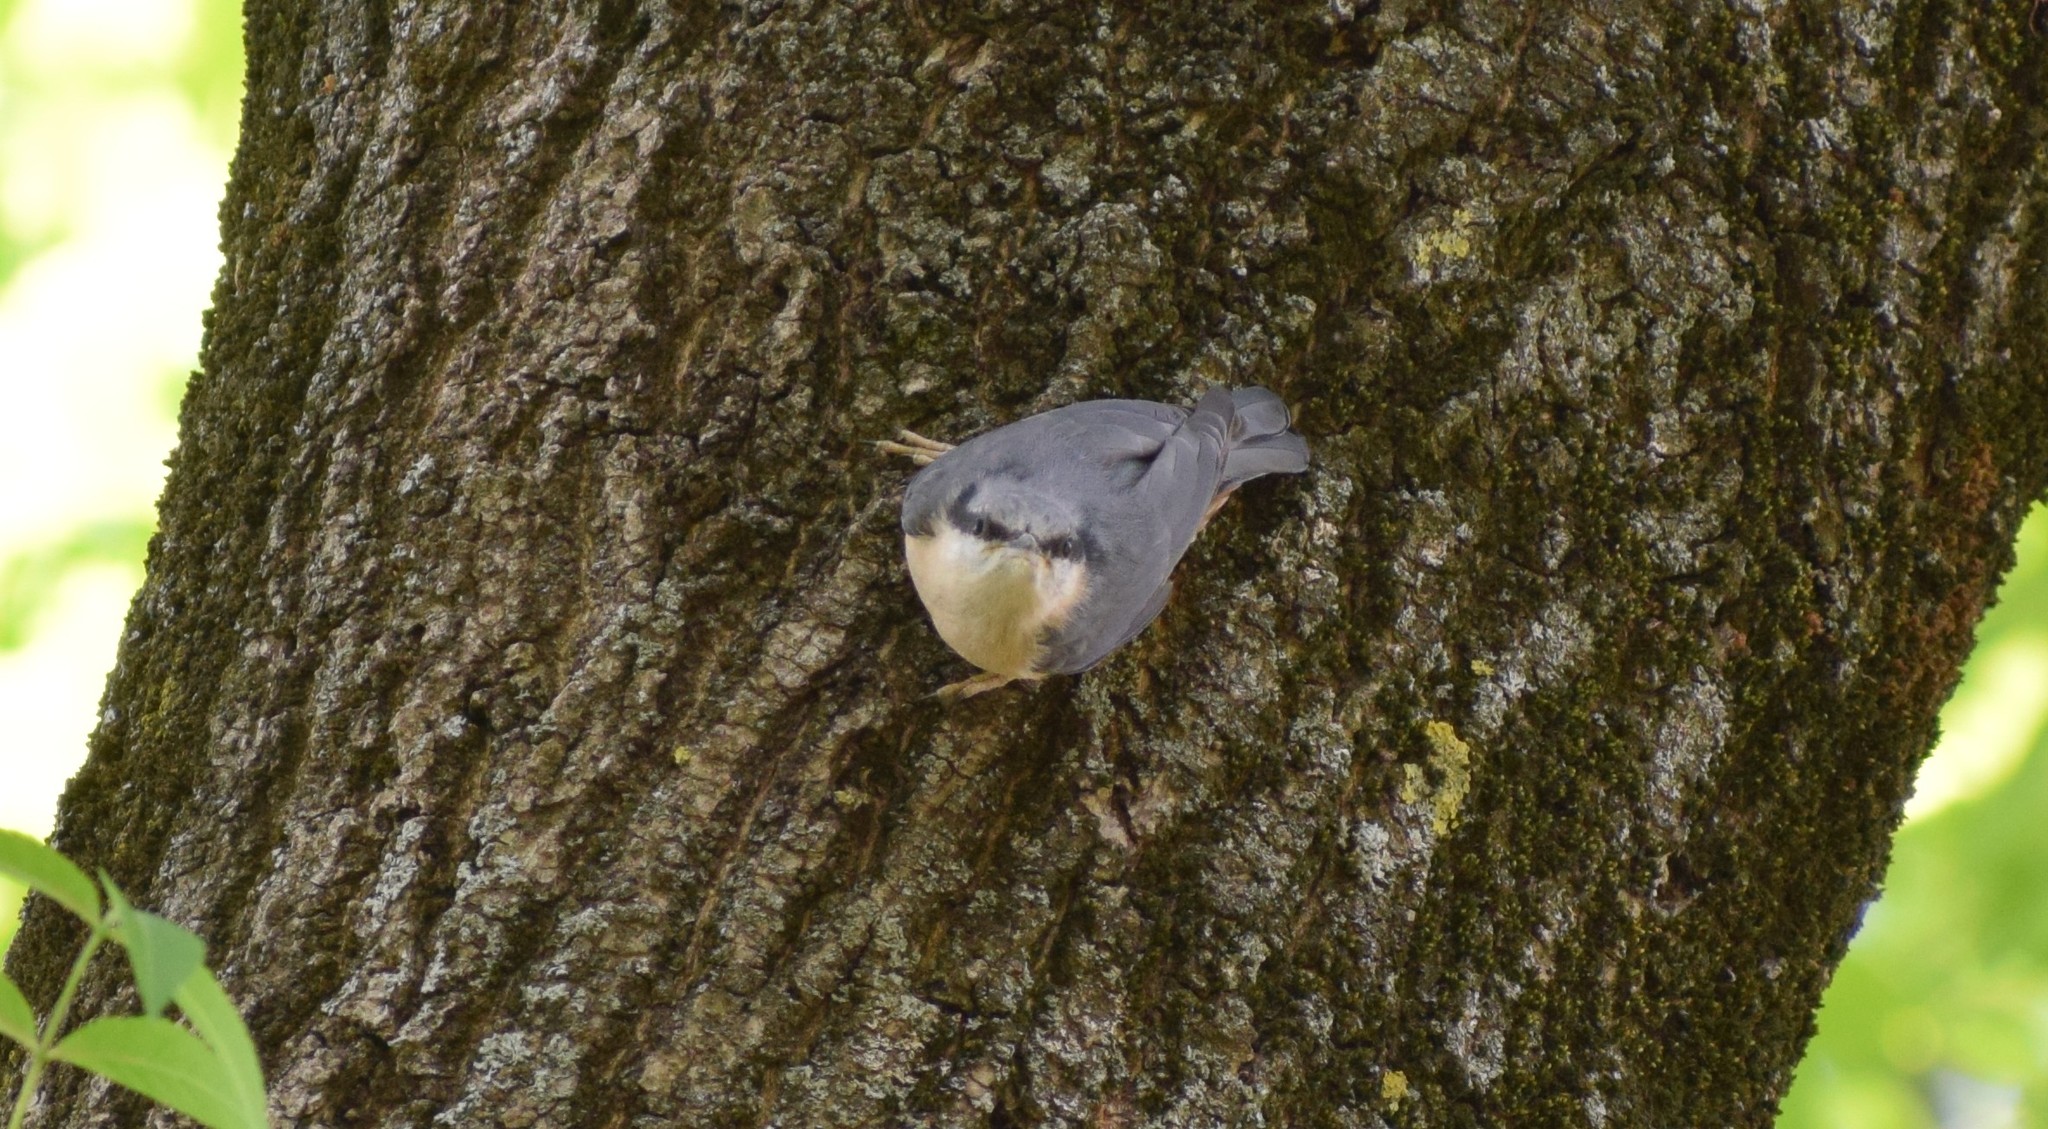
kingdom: Animalia
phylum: Chordata
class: Aves
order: Passeriformes
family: Sittidae
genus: Sitta
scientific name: Sitta europaea
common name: Eurasian nuthatch
